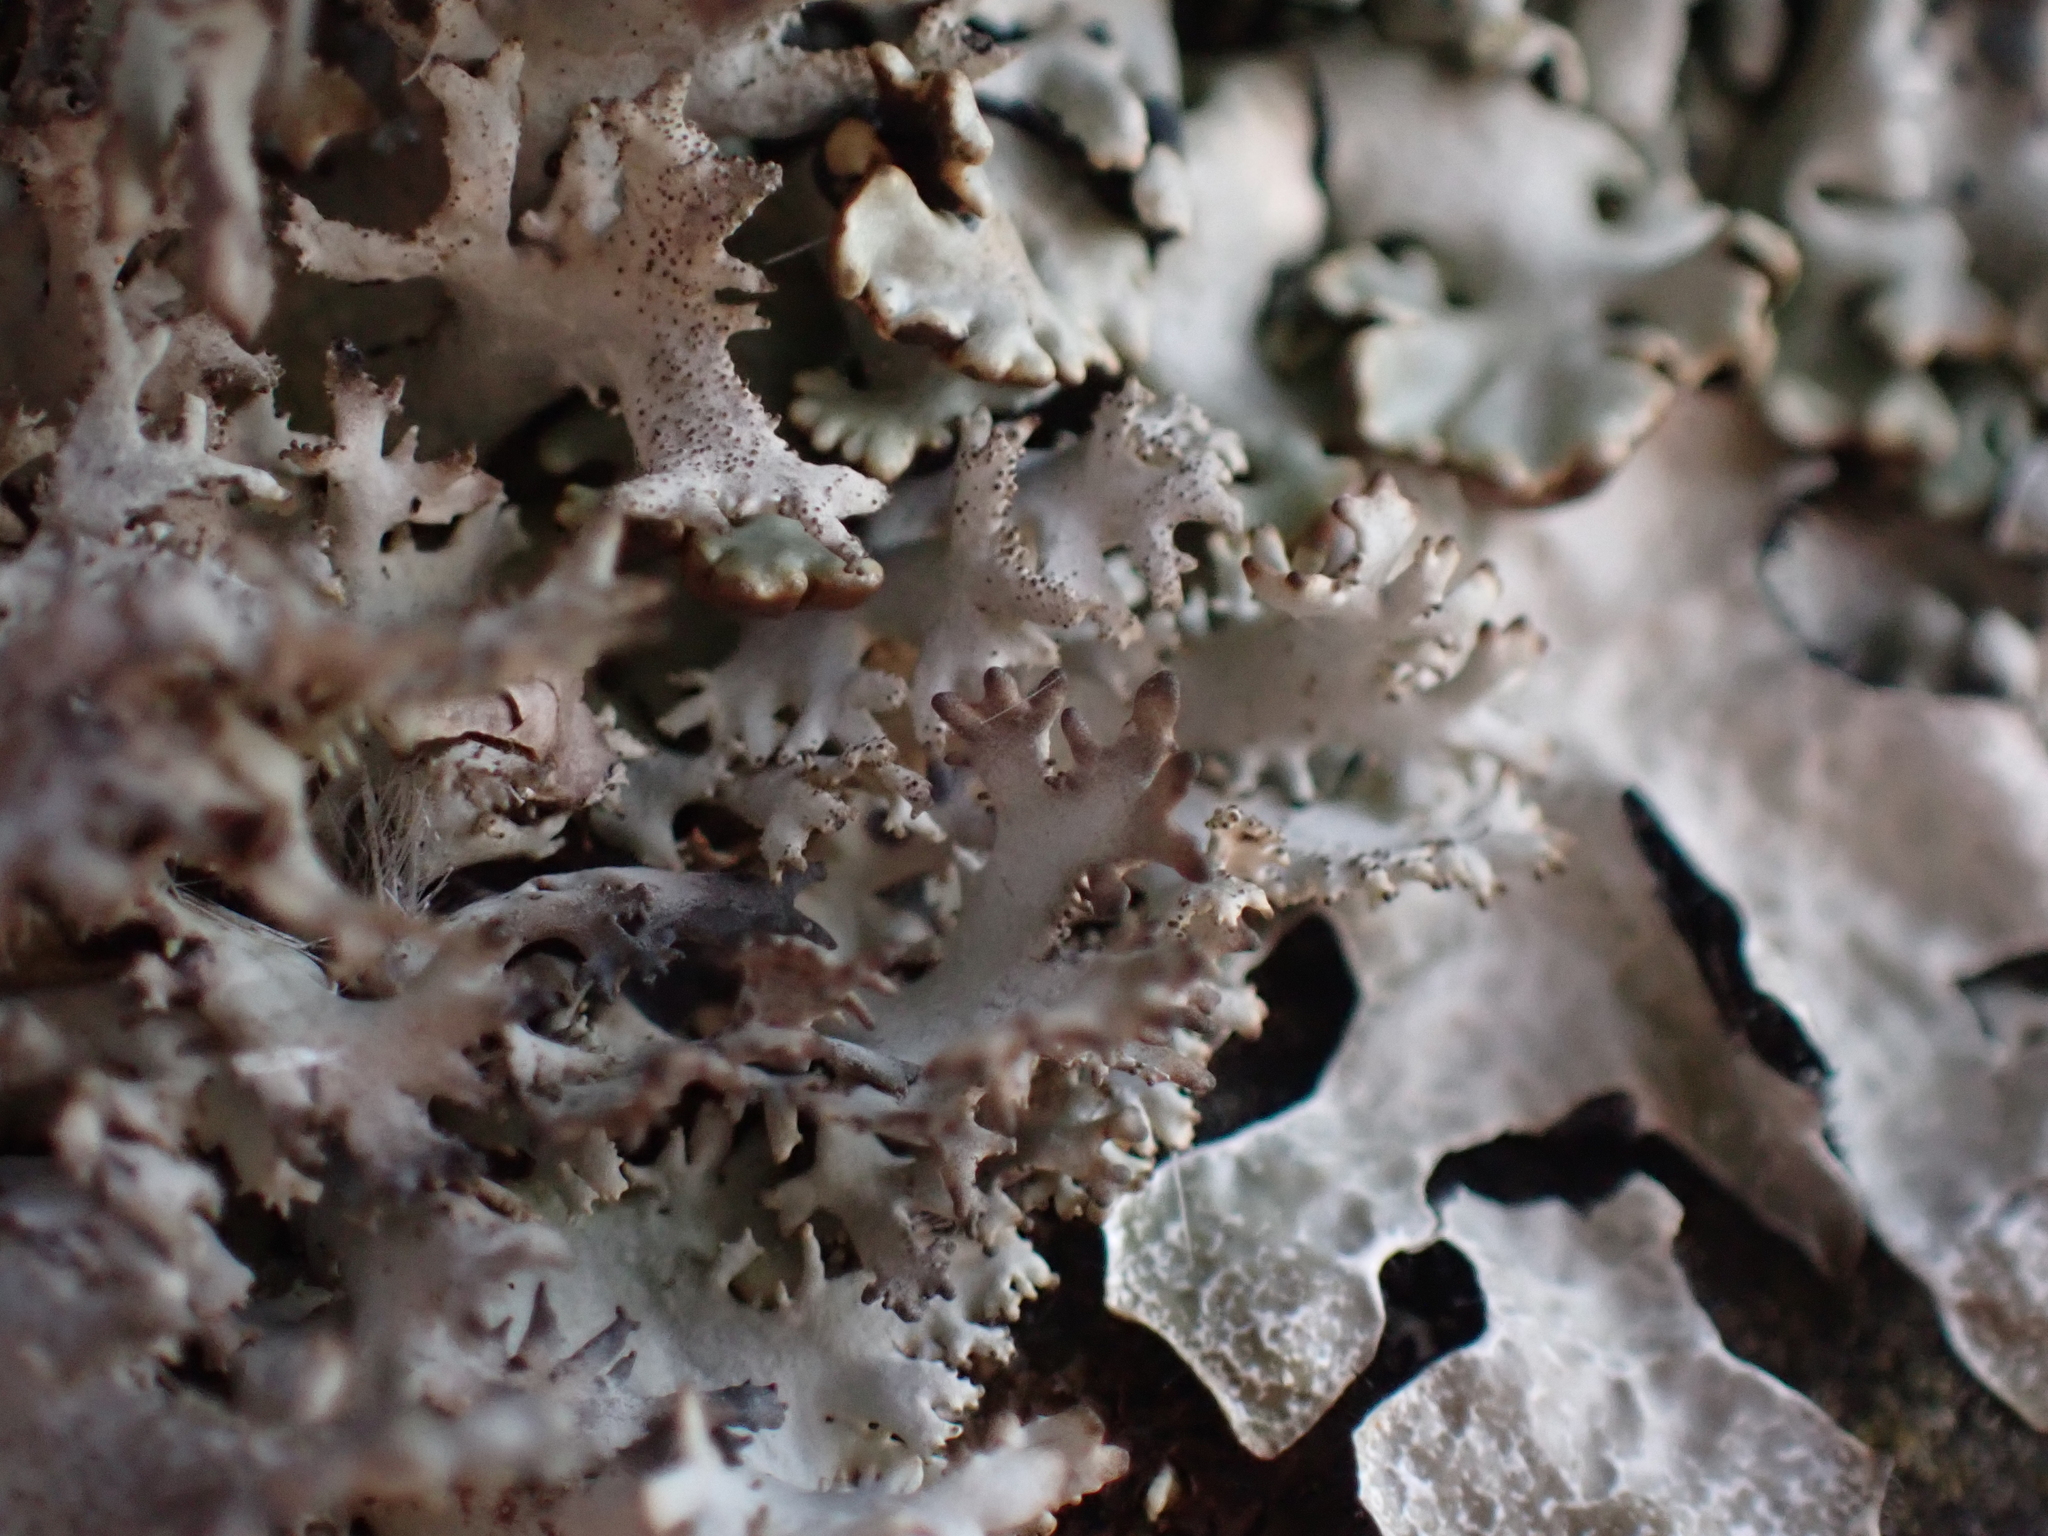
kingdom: Fungi
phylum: Ascomycota
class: Lecanoromycetes
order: Lecanorales
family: Parmeliaceae
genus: Pseudevernia
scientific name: Pseudevernia furfuracea
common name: Tree moss
